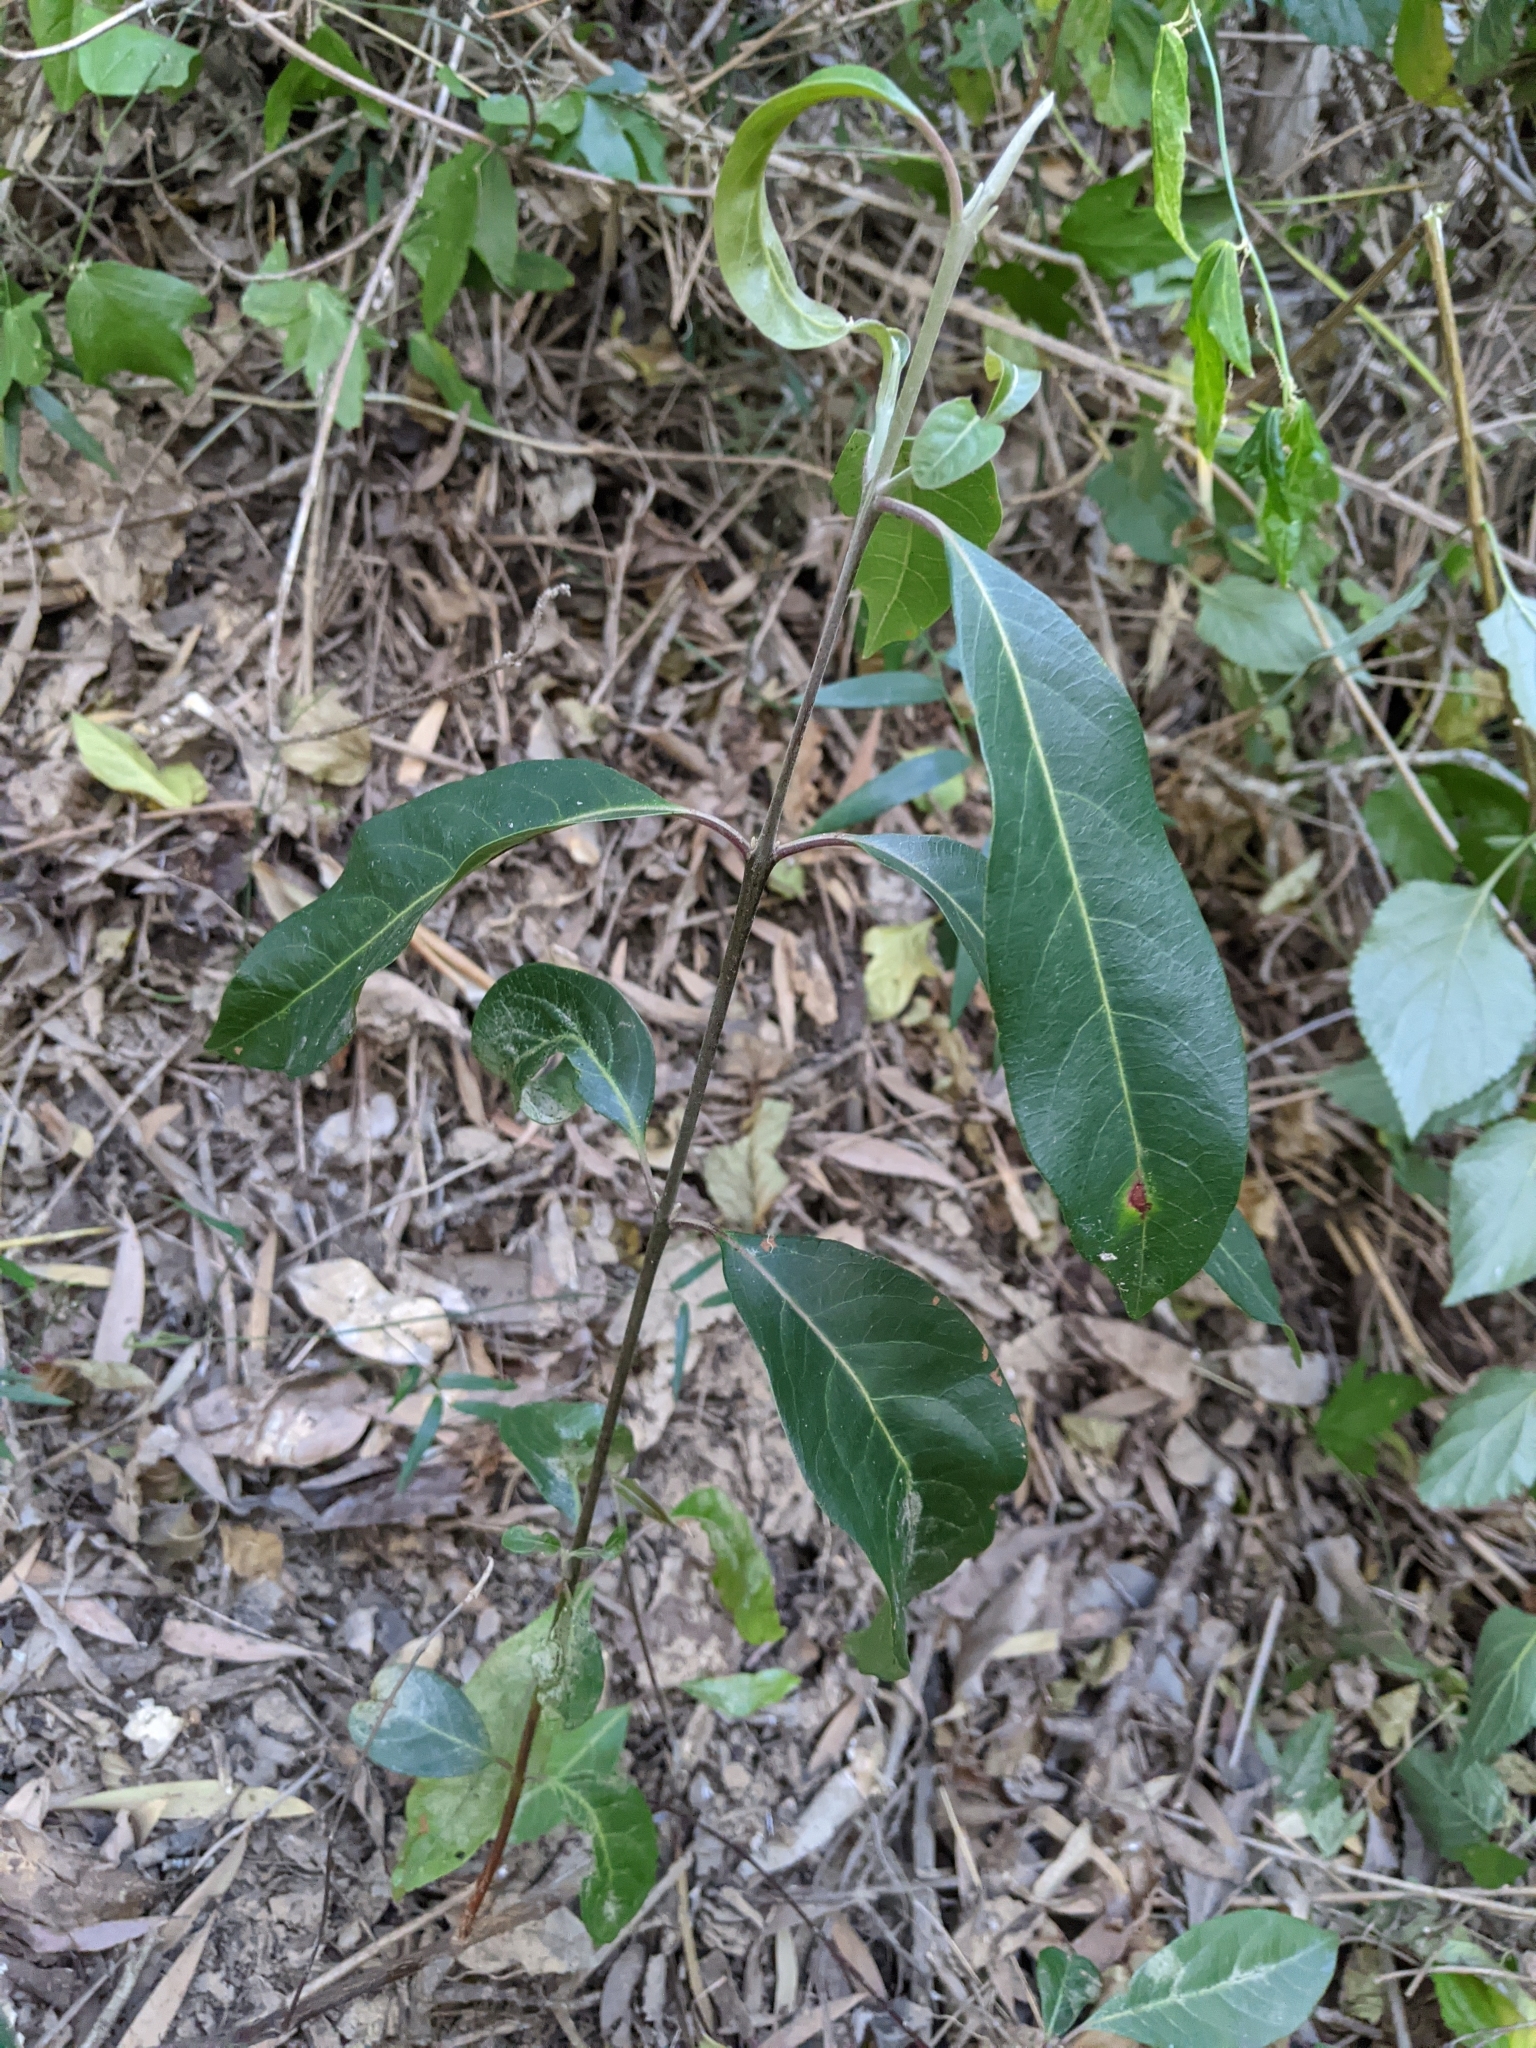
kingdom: Plantae
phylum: Tracheophyta
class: Magnoliopsida
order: Myrtales
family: Myrtaceae
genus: Rhodomyrtus
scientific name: Rhodomyrtus psidioides
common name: Native-guava
